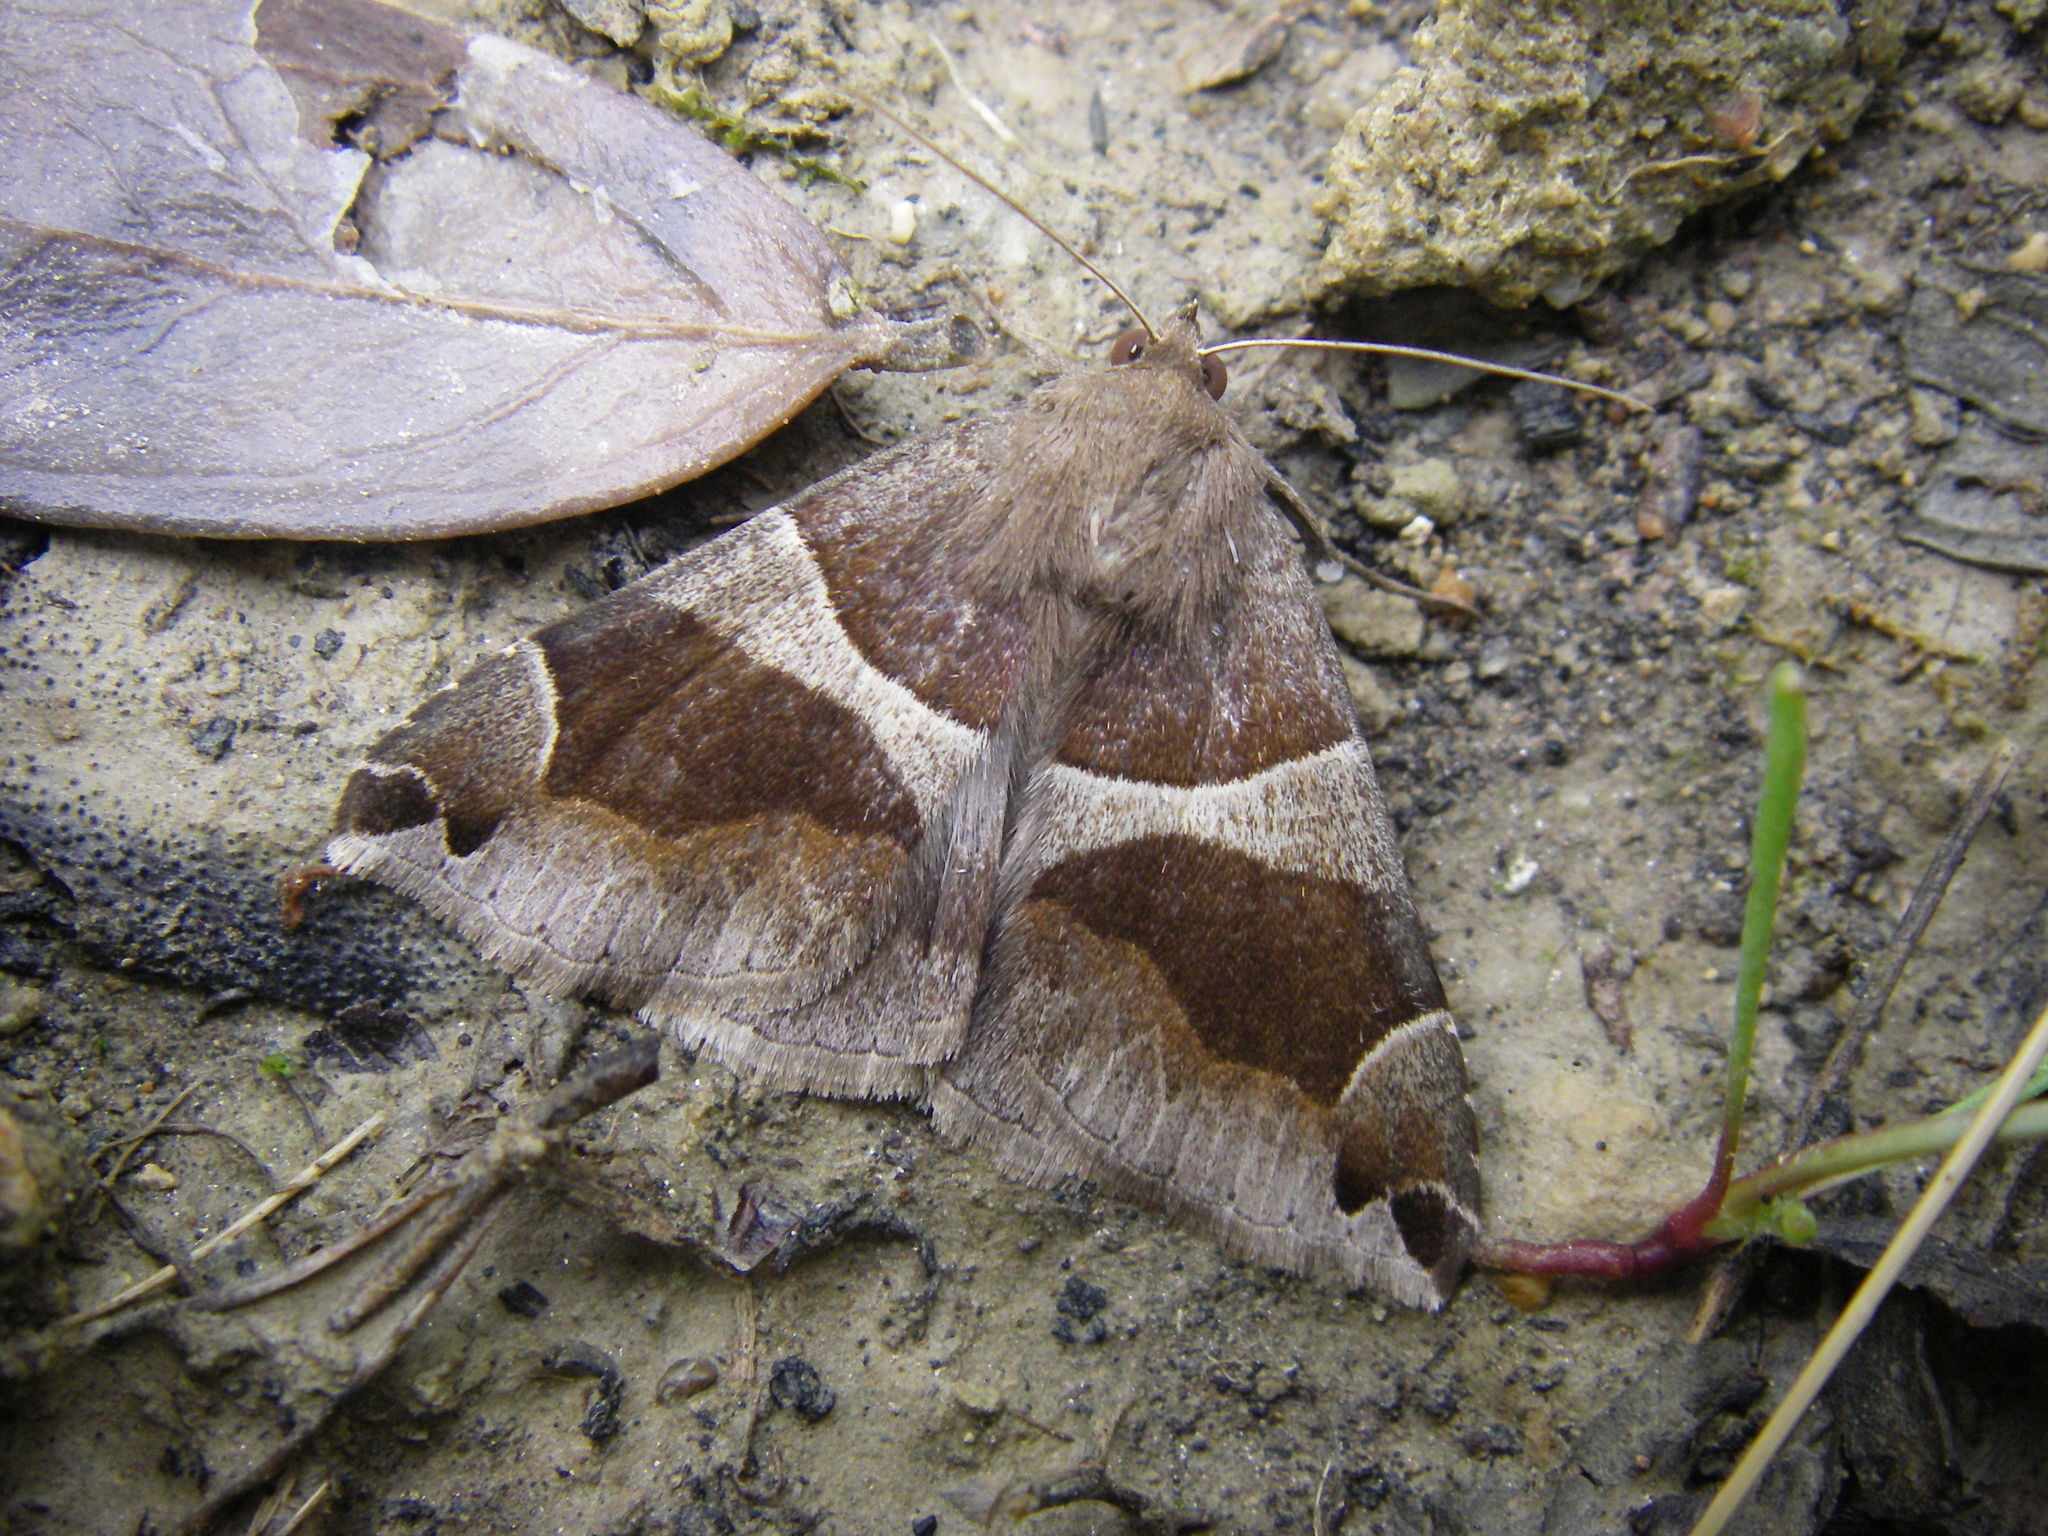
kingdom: Animalia
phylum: Arthropoda
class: Insecta
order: Lepidoptera
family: Erebidae
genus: Dysgonia
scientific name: Dysgonia algira
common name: Passenger
